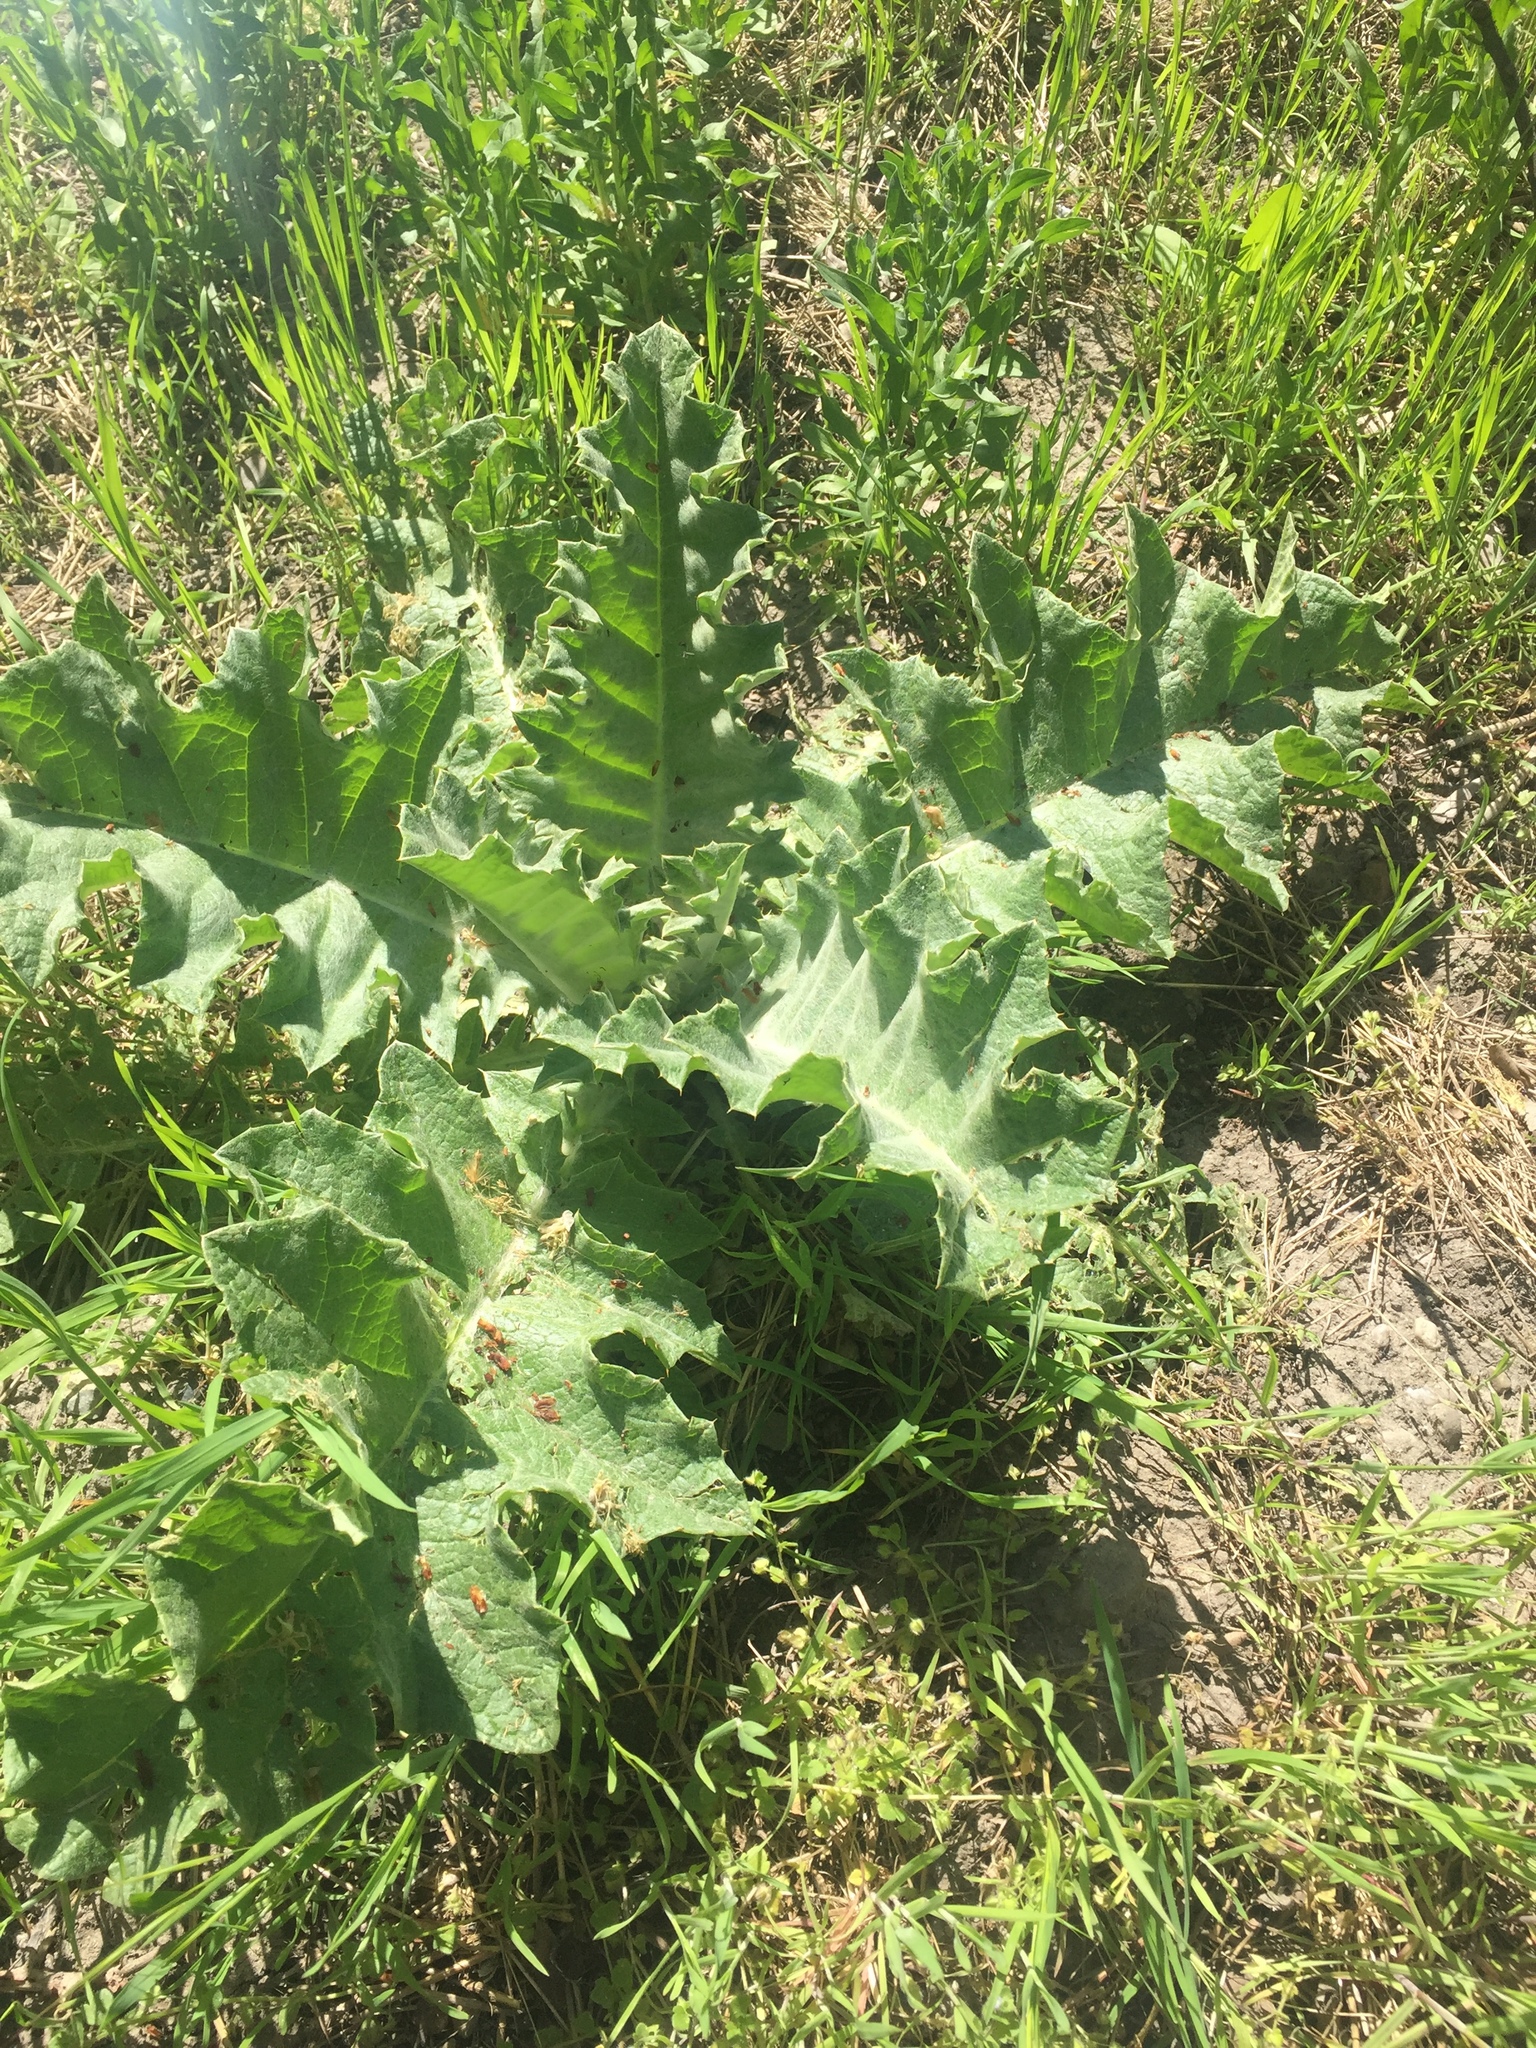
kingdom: Plantae
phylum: Tracheophyta
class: Magnoliopsida
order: Asterales
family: Asteraceae
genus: Onopordum
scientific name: Onopordum acanthium
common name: Scotch thistle
